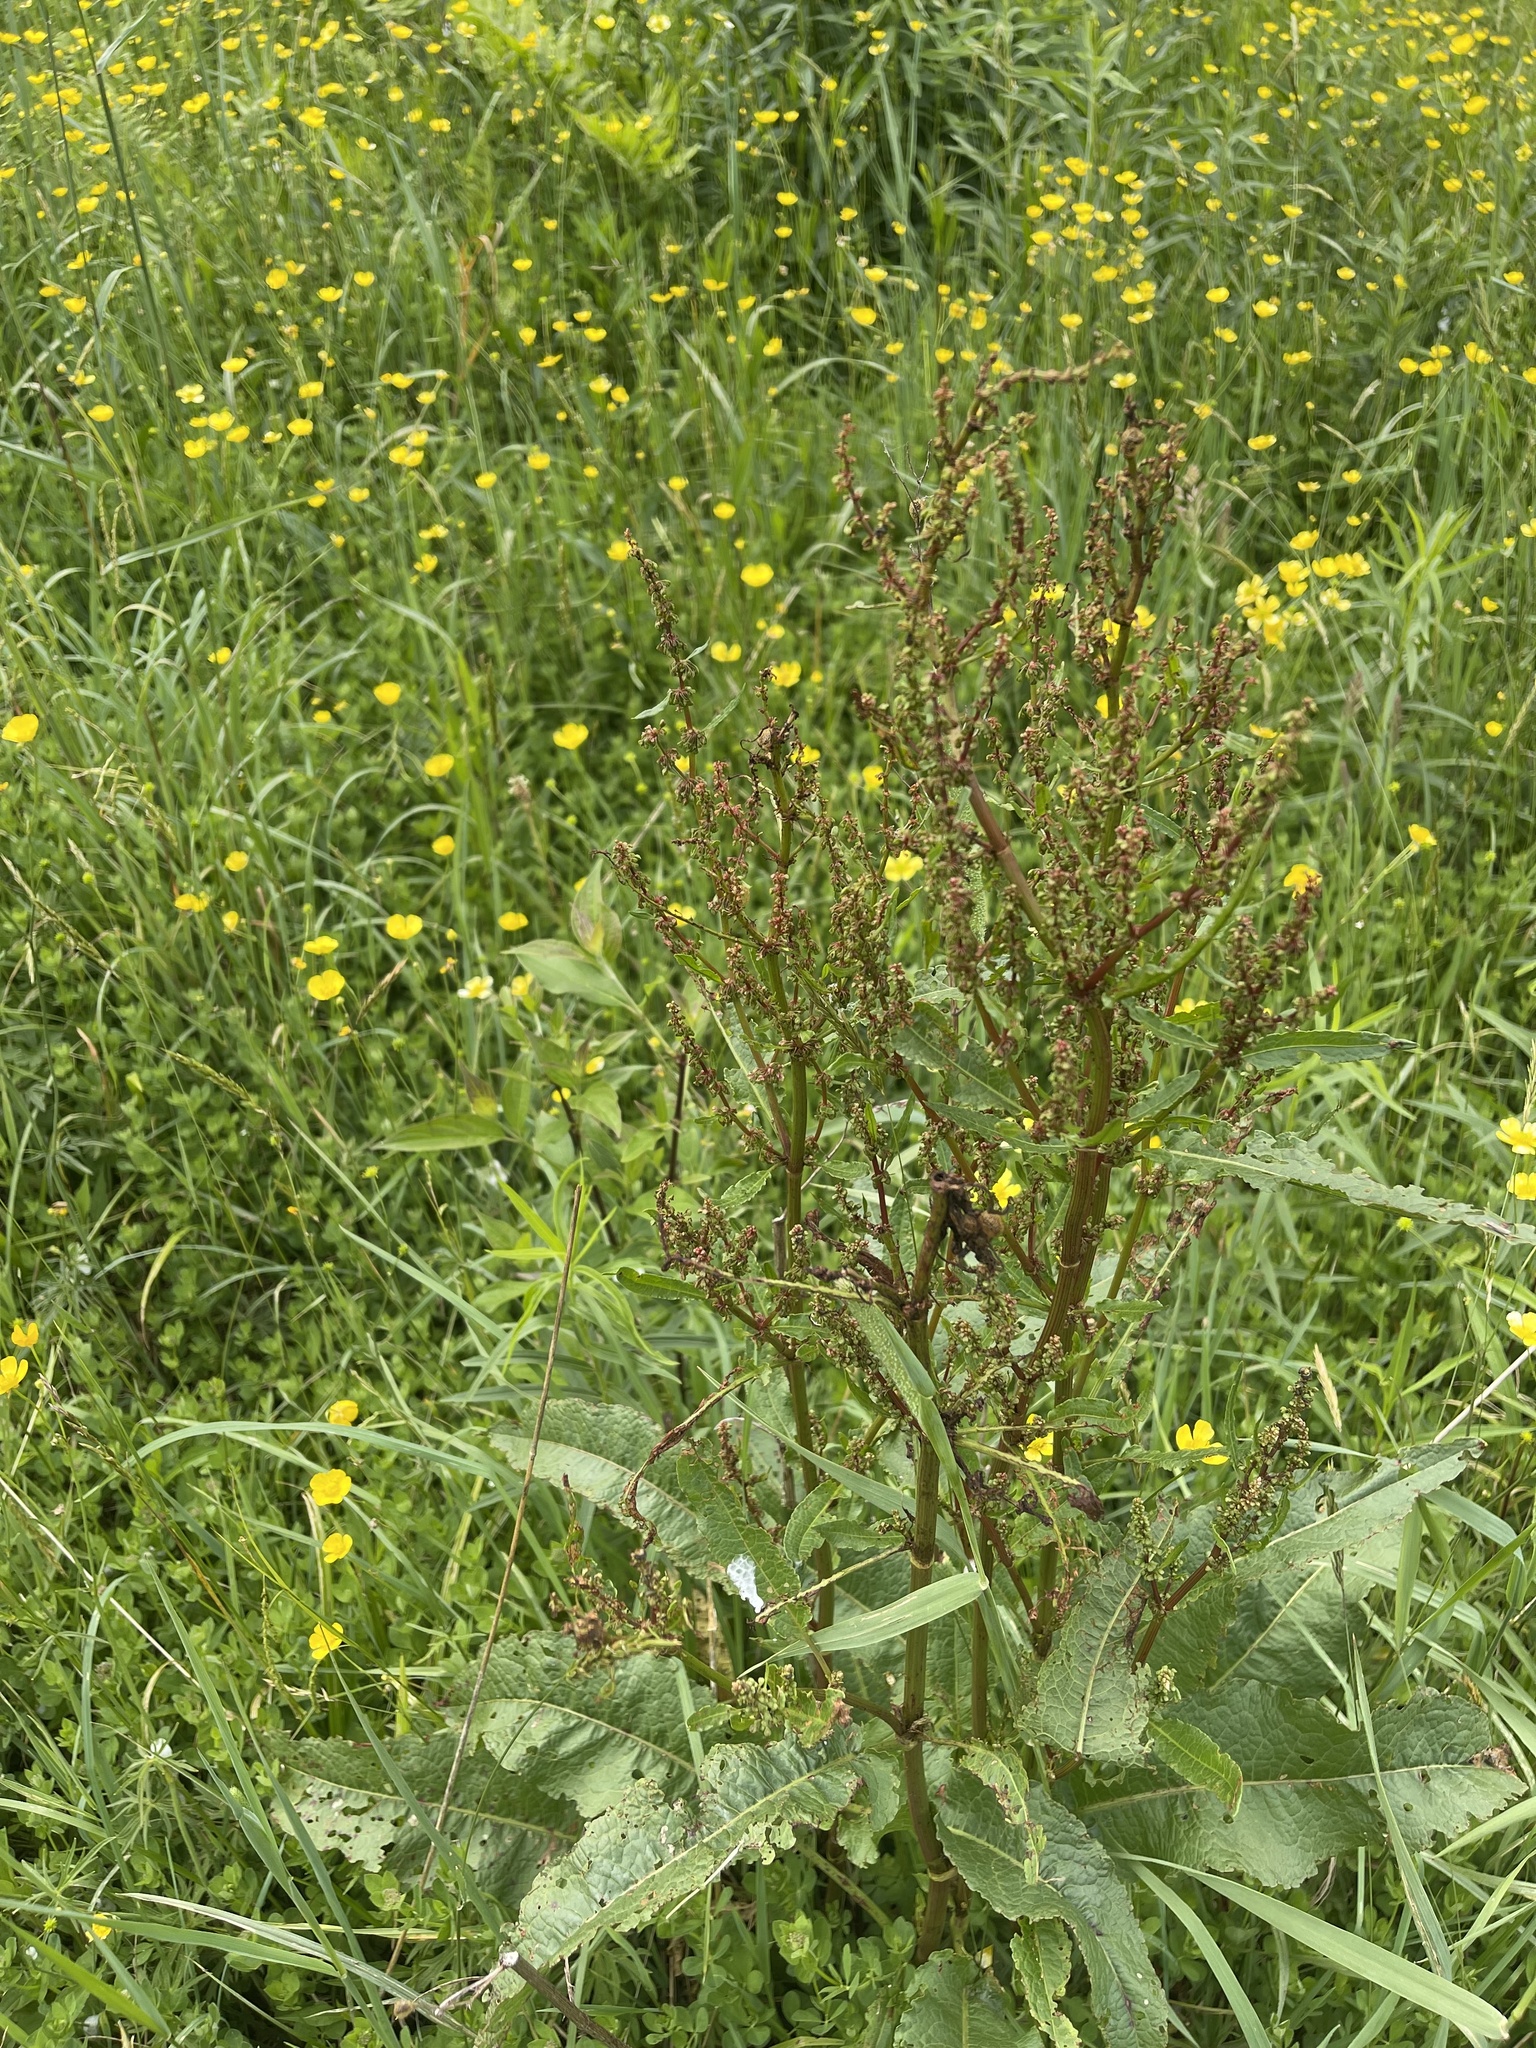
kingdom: Plantae
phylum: Tracheophyta
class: Magnoliopsida
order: Caryophyllales
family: Polygonaceae
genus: Rumex
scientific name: Rumex obtusifolius
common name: Bitter dock
